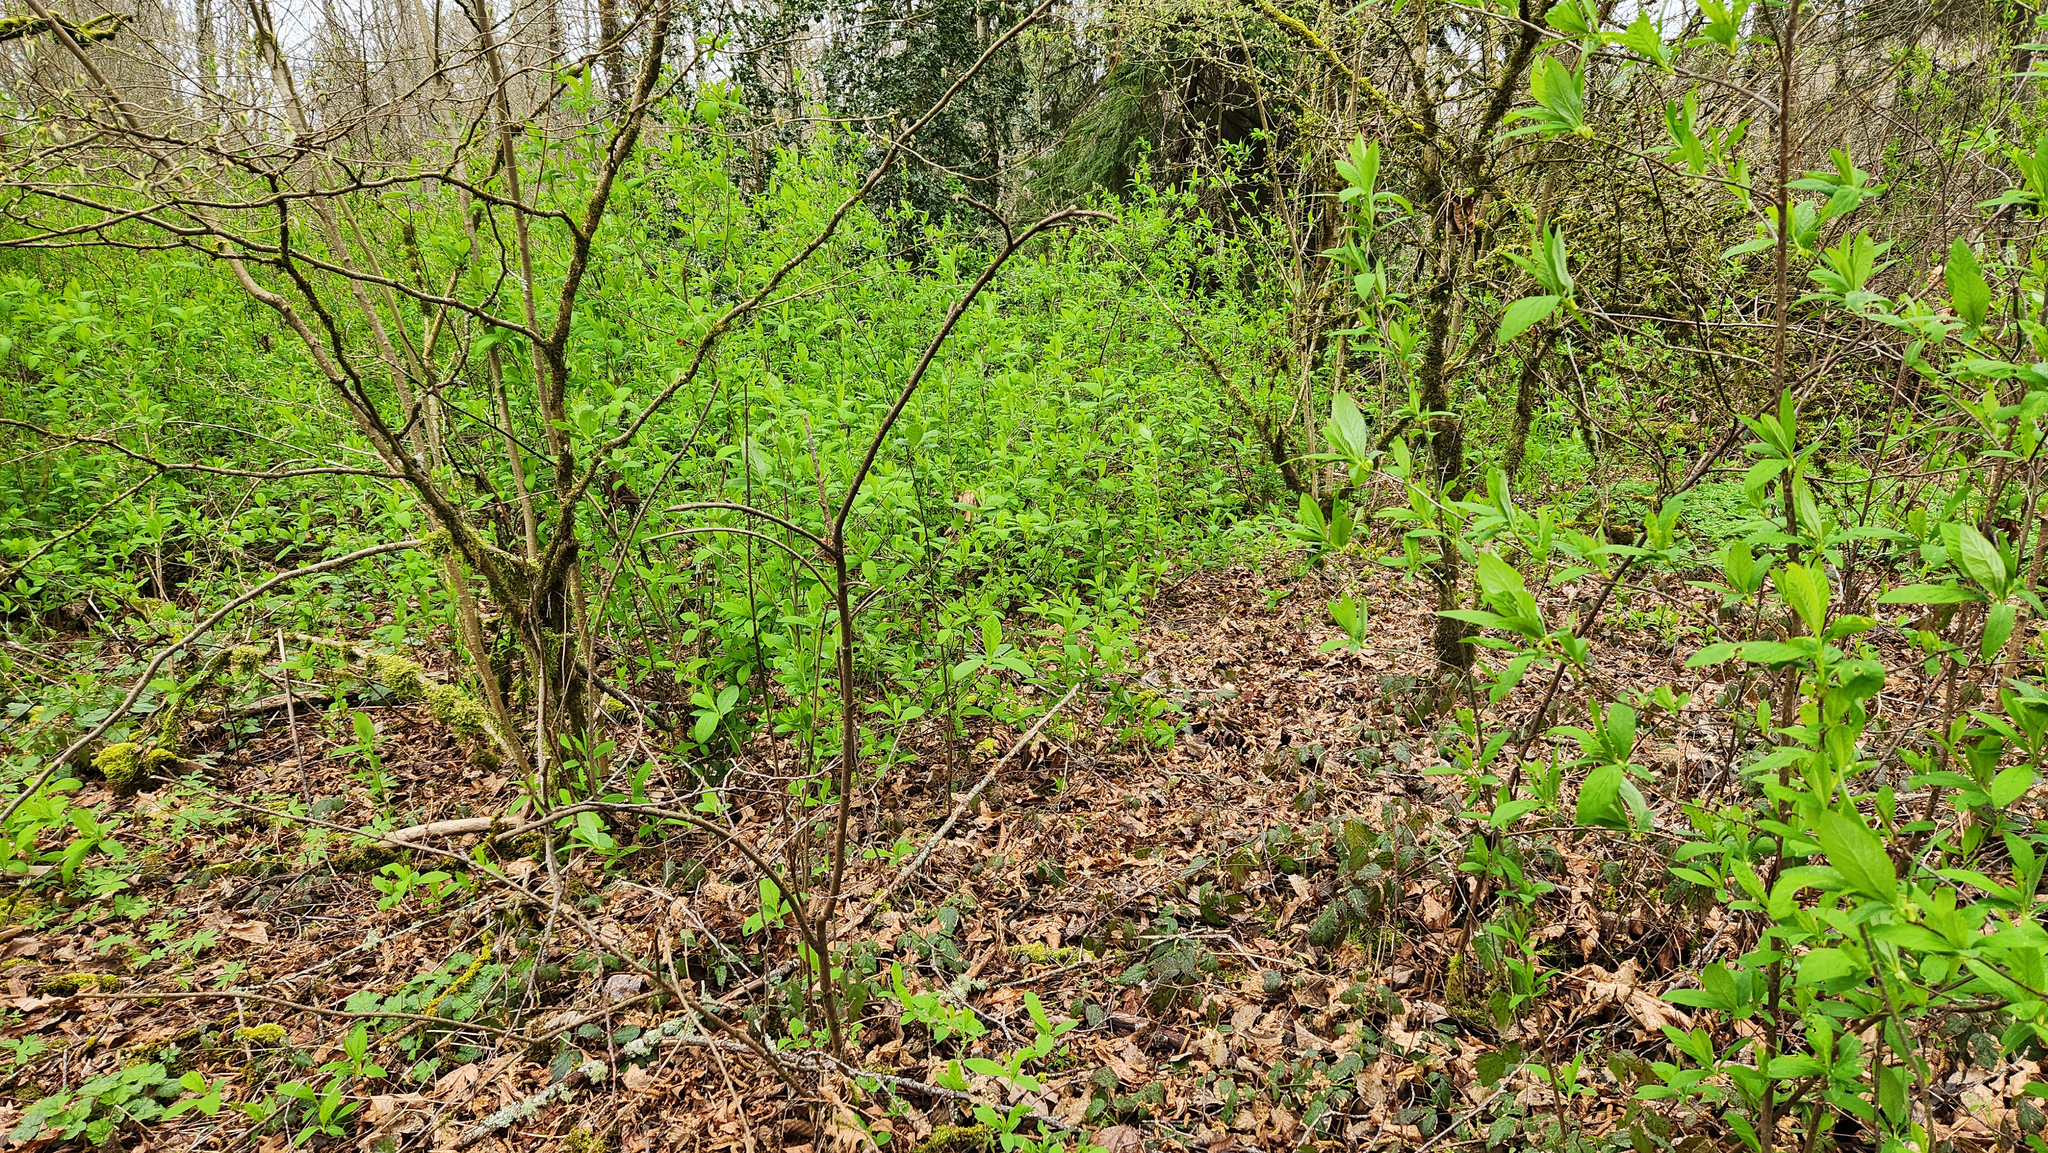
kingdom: Plantae
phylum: Tracheophyta
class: Magnoliopsida
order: Rosales
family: Rosaceae
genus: Oemleria
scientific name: Oemleria cerasiformis
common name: Osoberry
